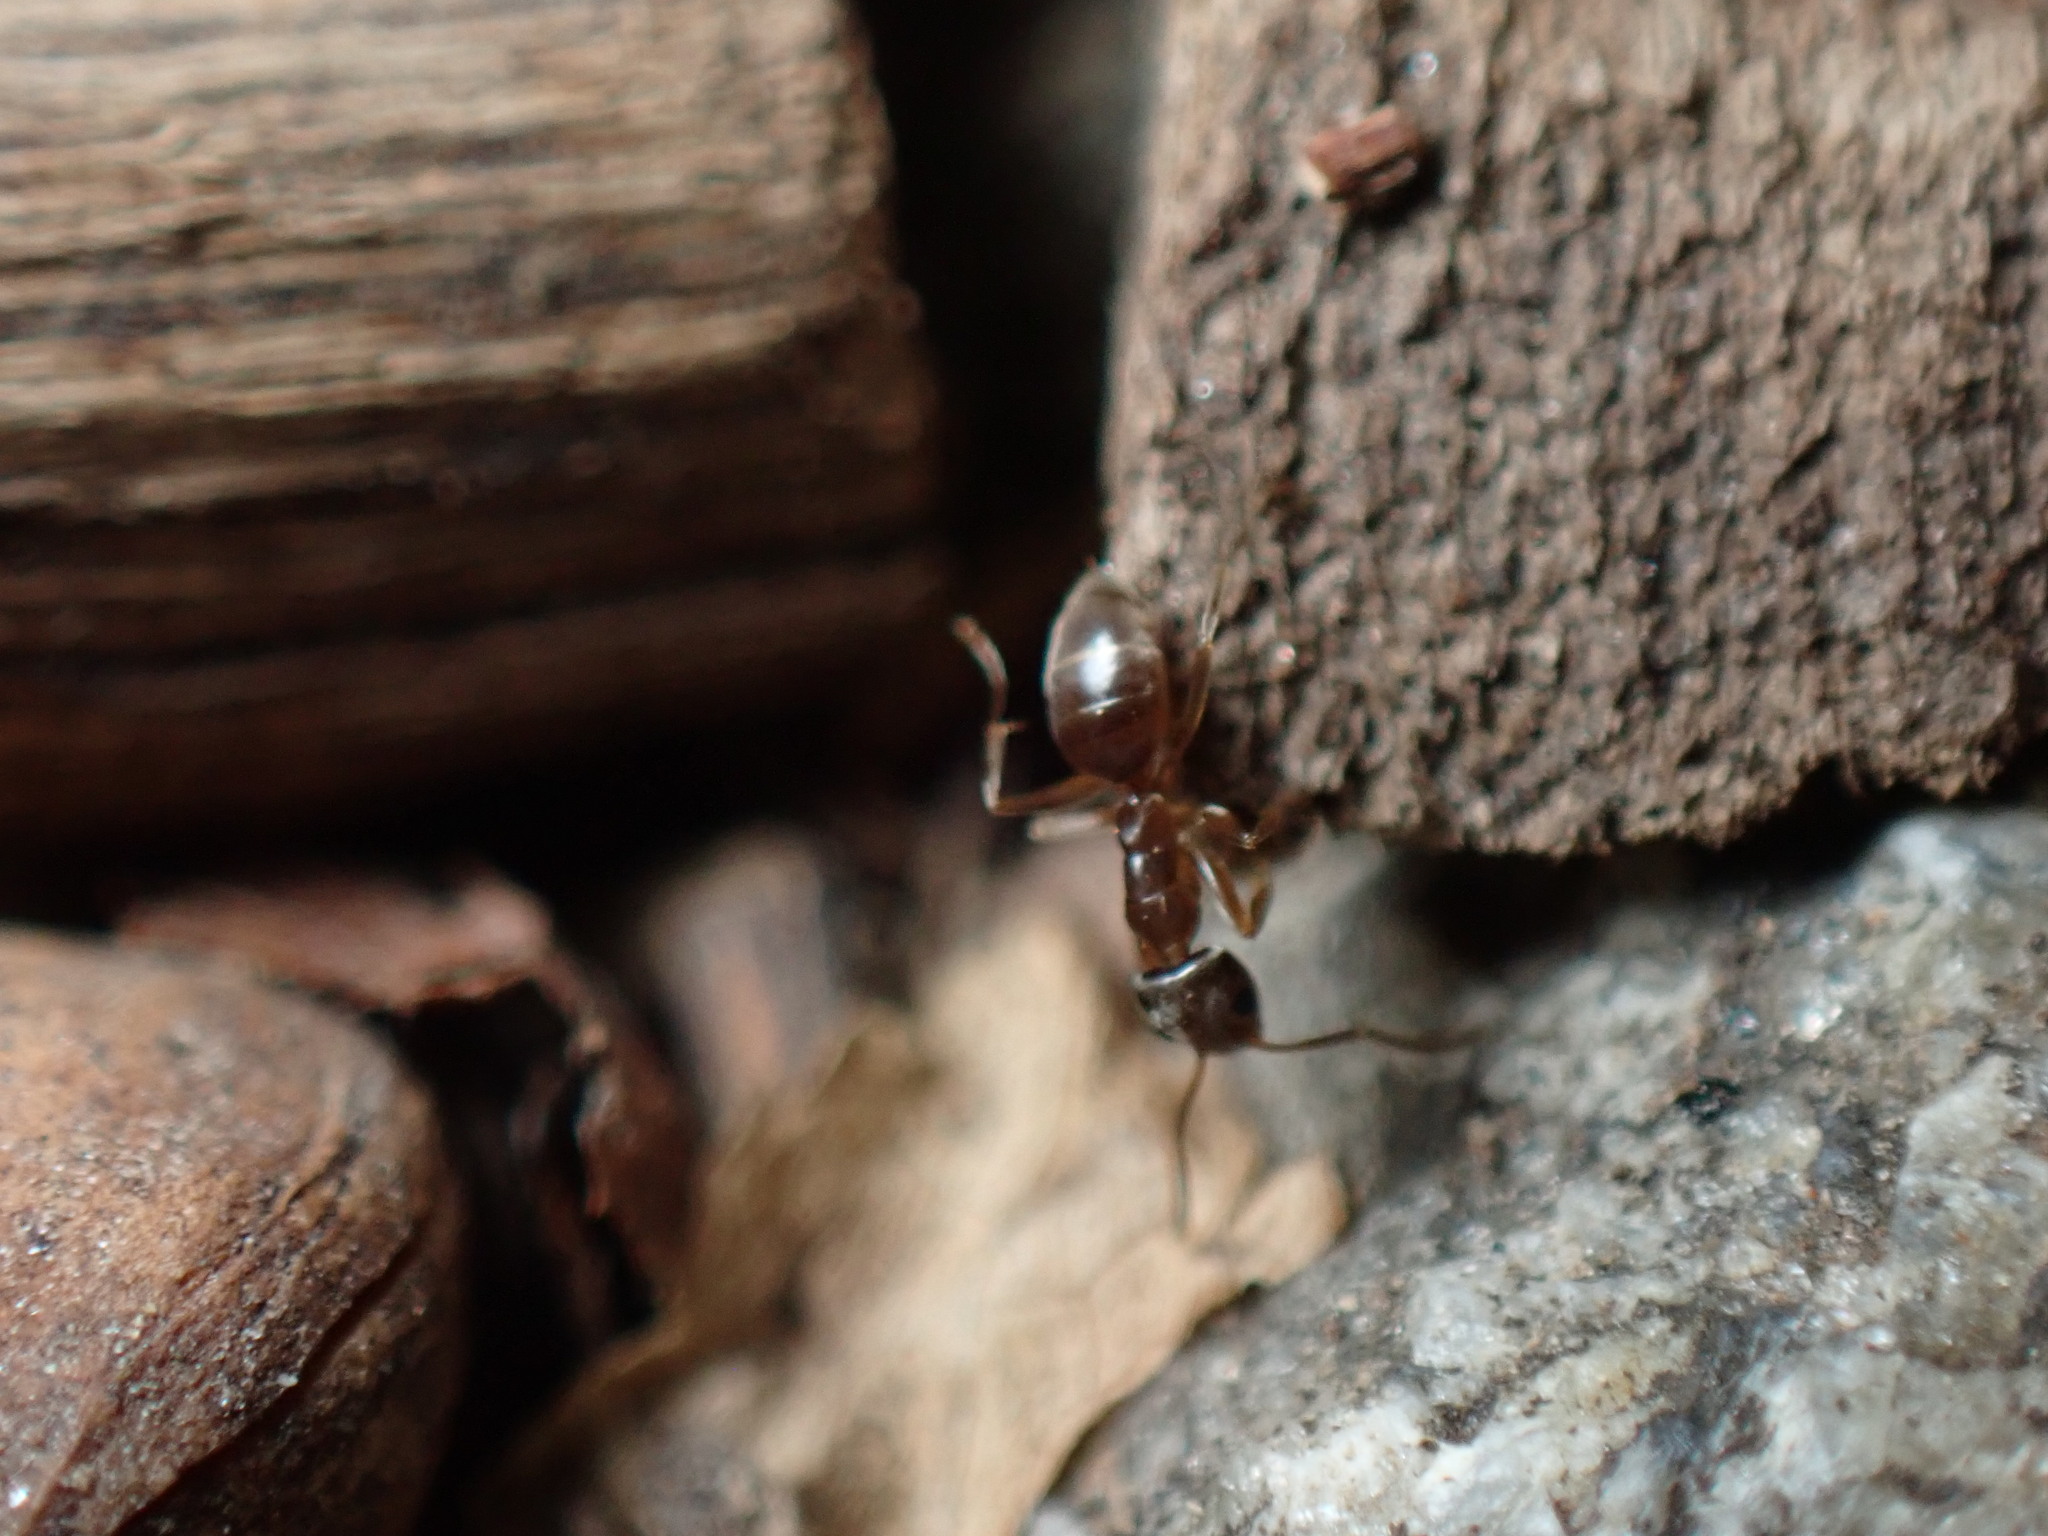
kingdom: Animalia
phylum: Arthropoda
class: Insecta
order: Hymenoptera
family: Formicidae
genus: Tapinoma
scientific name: Tapinoma sessile
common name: Odorous house ant
